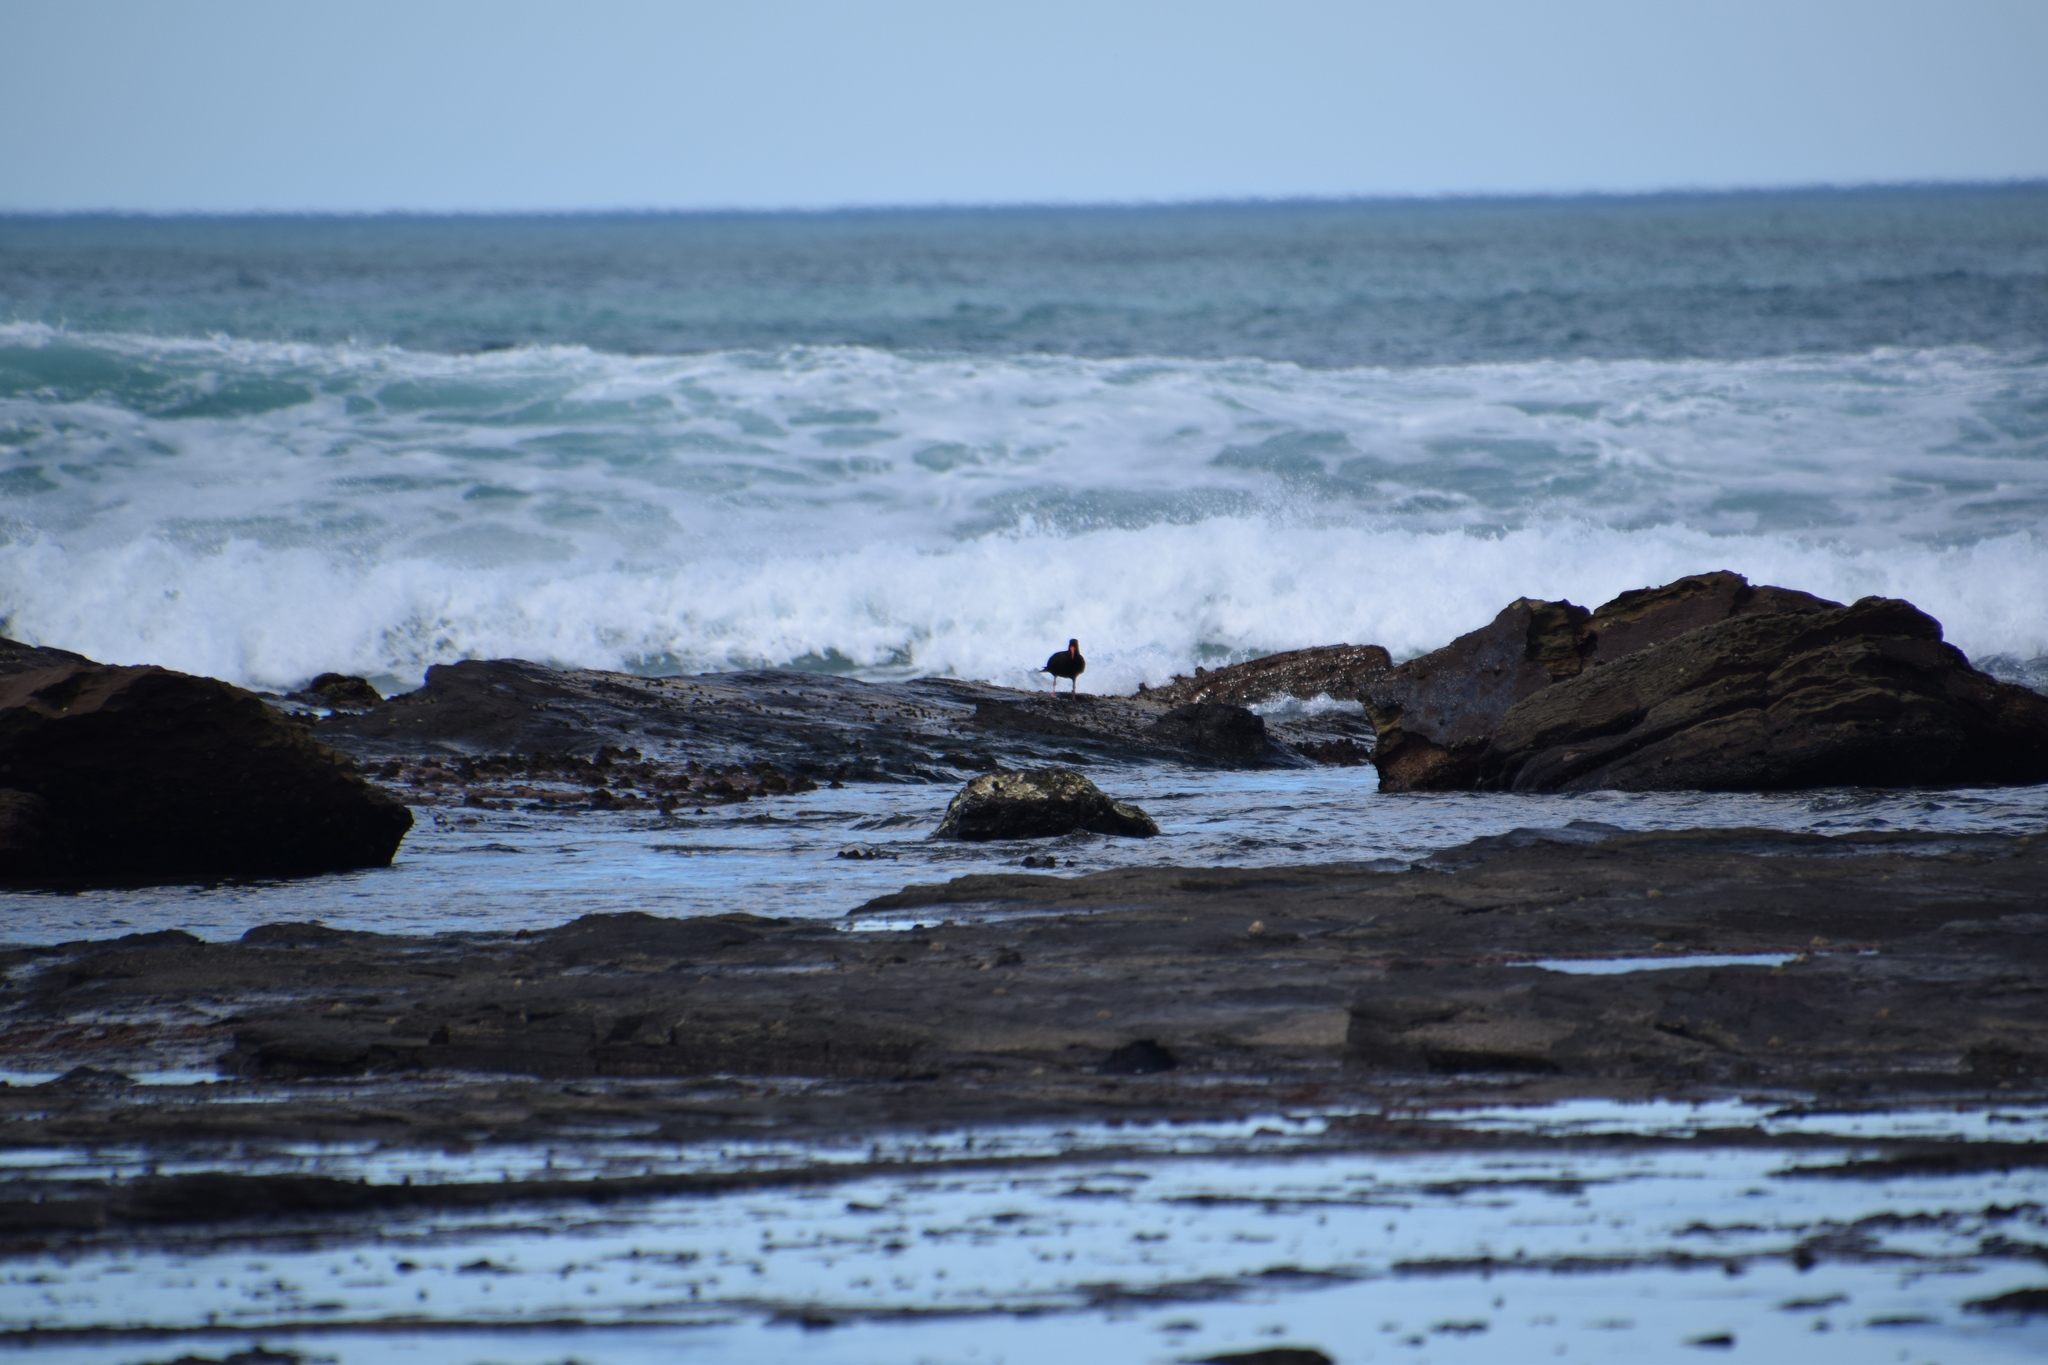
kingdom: Animalia
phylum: Chordata
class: Aves
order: Charadriiformes
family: Haematopodidae
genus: Haematopus
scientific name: Haematopus fuliginosus
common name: Sooty oystercatcher
